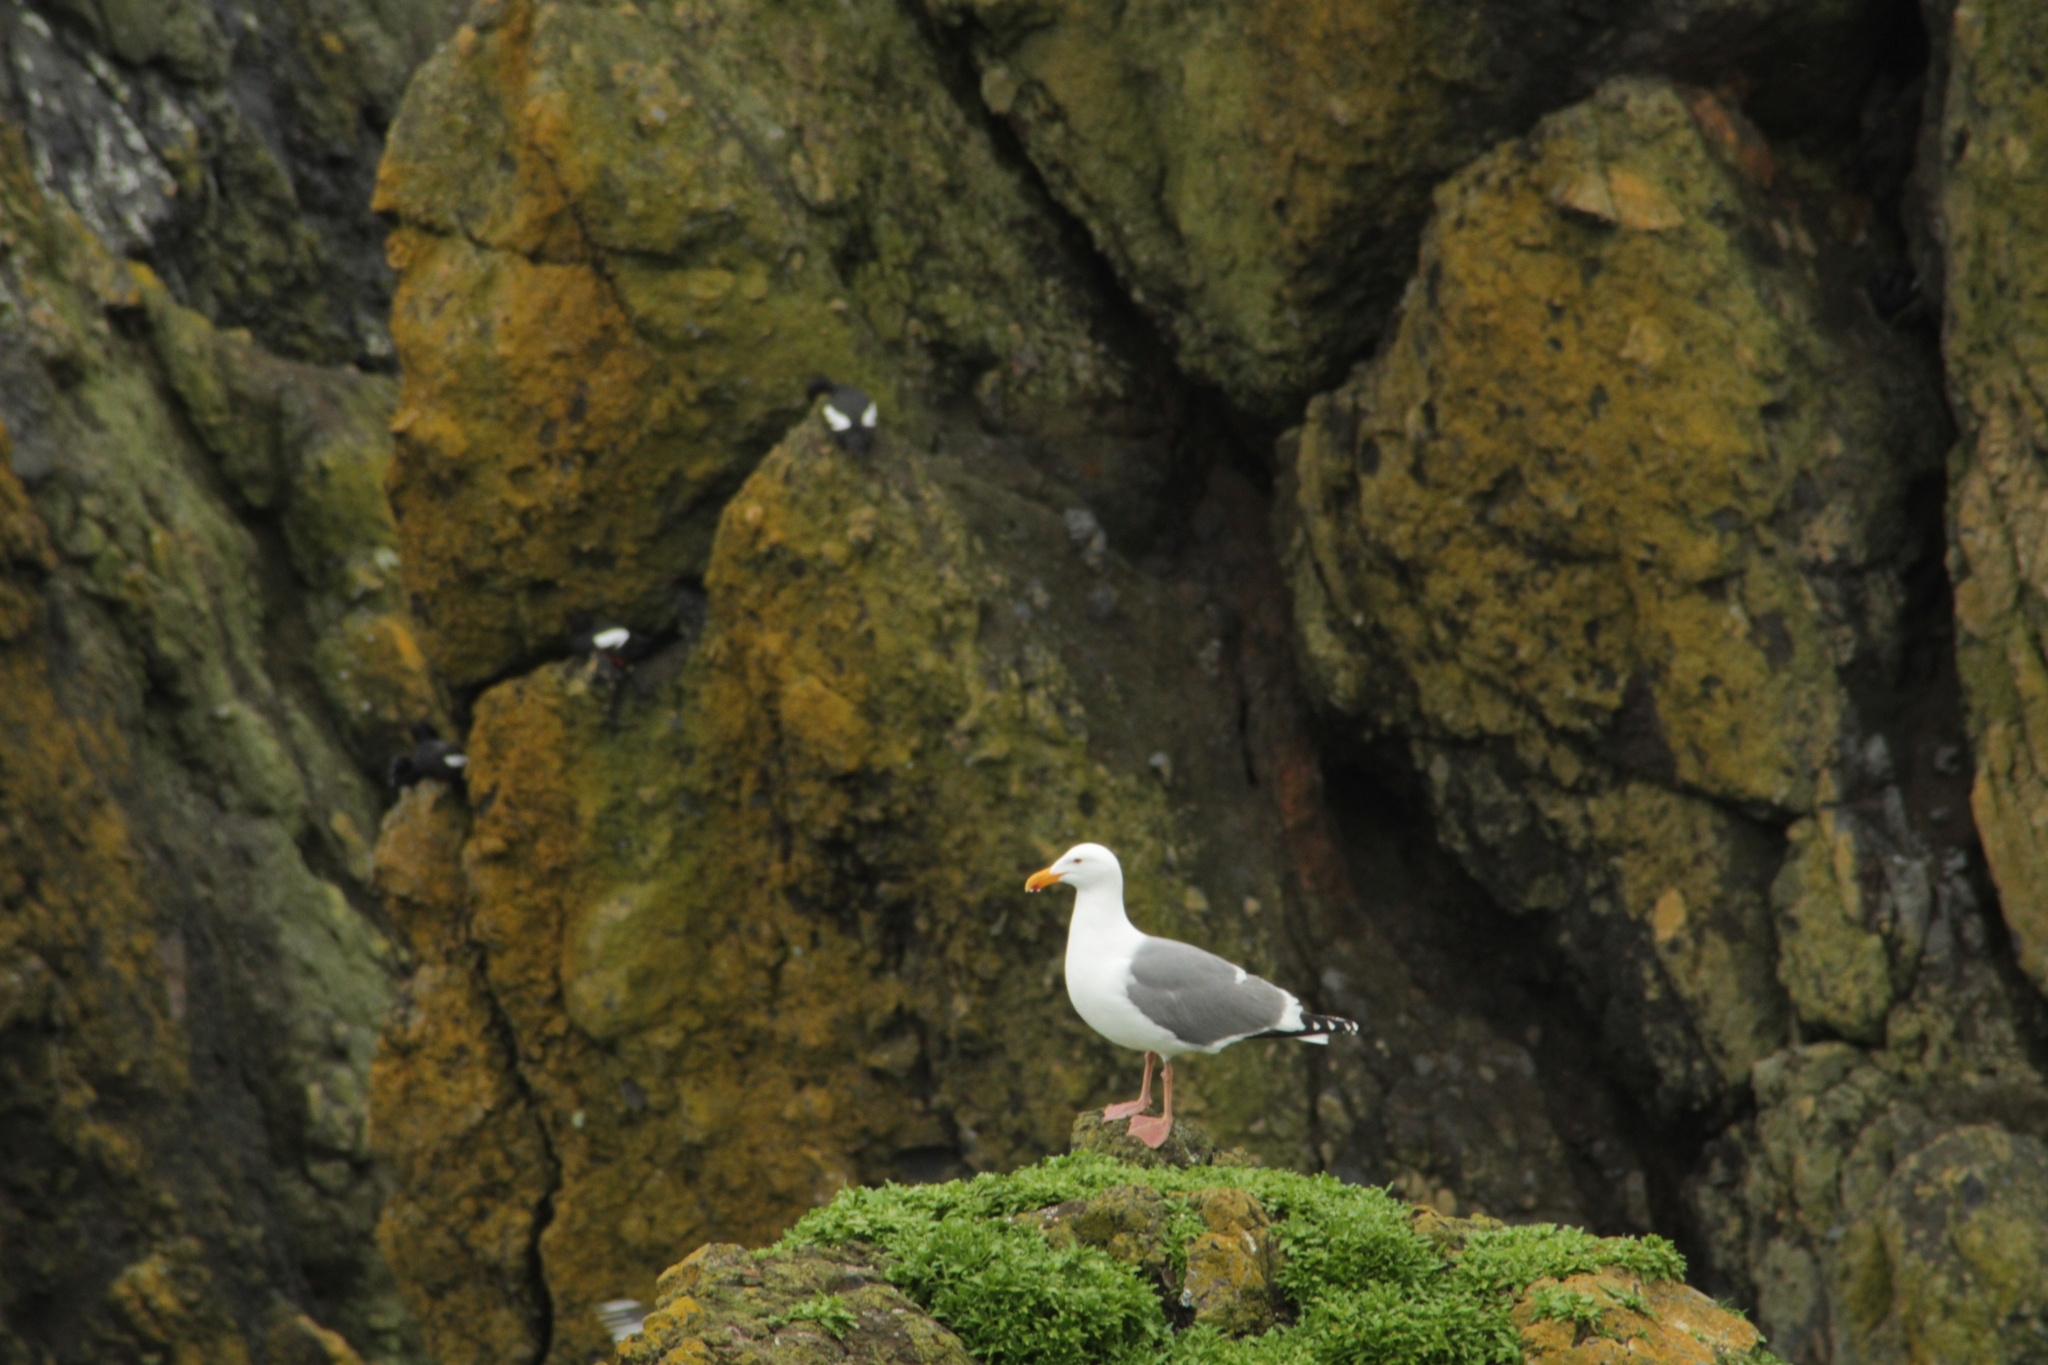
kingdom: Animalia
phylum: Chordata
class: Aves
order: Charadriiformes
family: Laridae
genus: Larus
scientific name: Larus occidentalis
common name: Western gull
